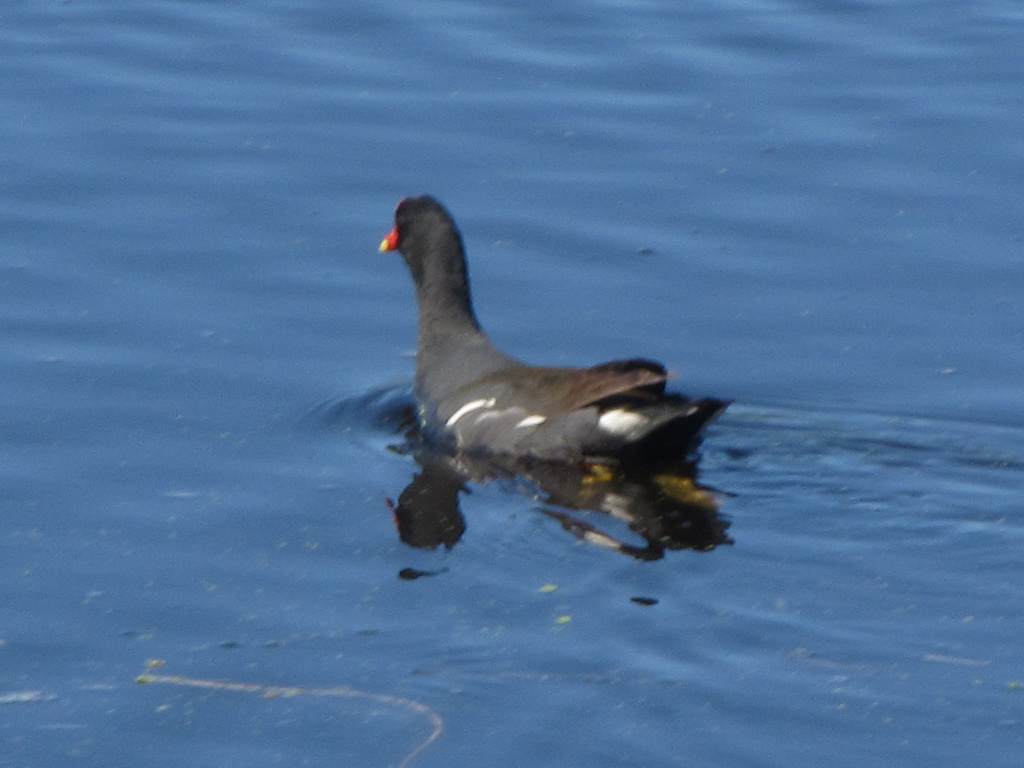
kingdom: Animalia
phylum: Chordata
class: Aves
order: Gruiformes
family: Rallidae
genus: Gallinula
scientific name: Gallinula chloropus
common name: Common moorhen
